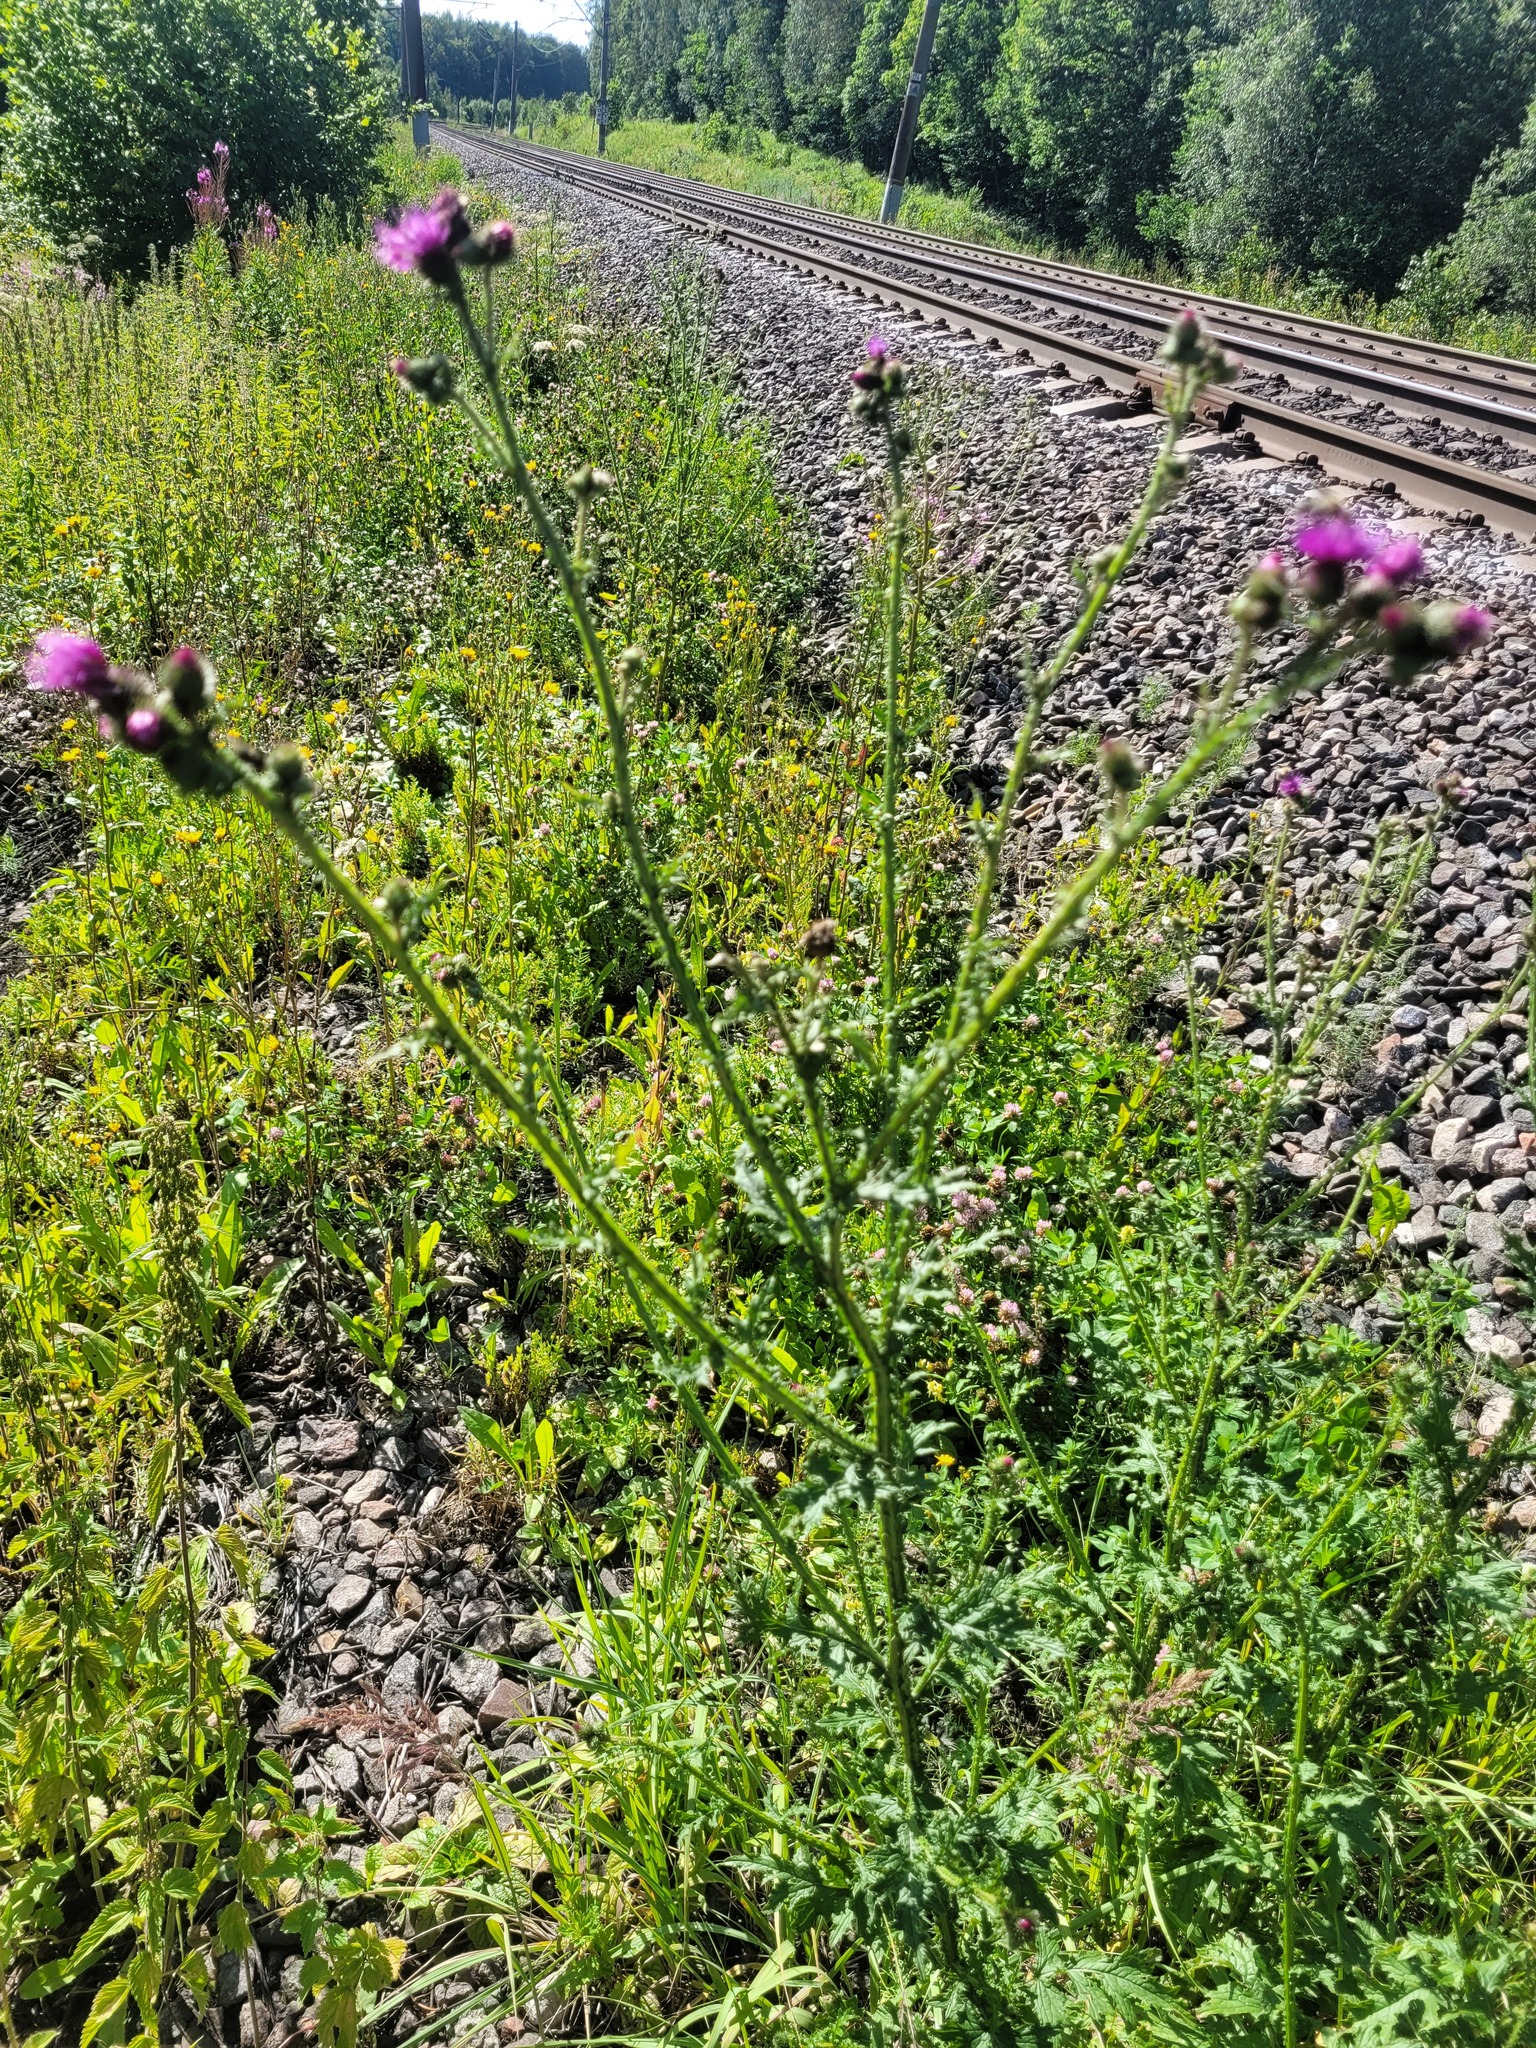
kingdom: Plantae
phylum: Tracheophyta
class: Magnoliopsida
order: Asterales
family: Asteraceae
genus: Carduus
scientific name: Carduus crispus
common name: Welted thistle
